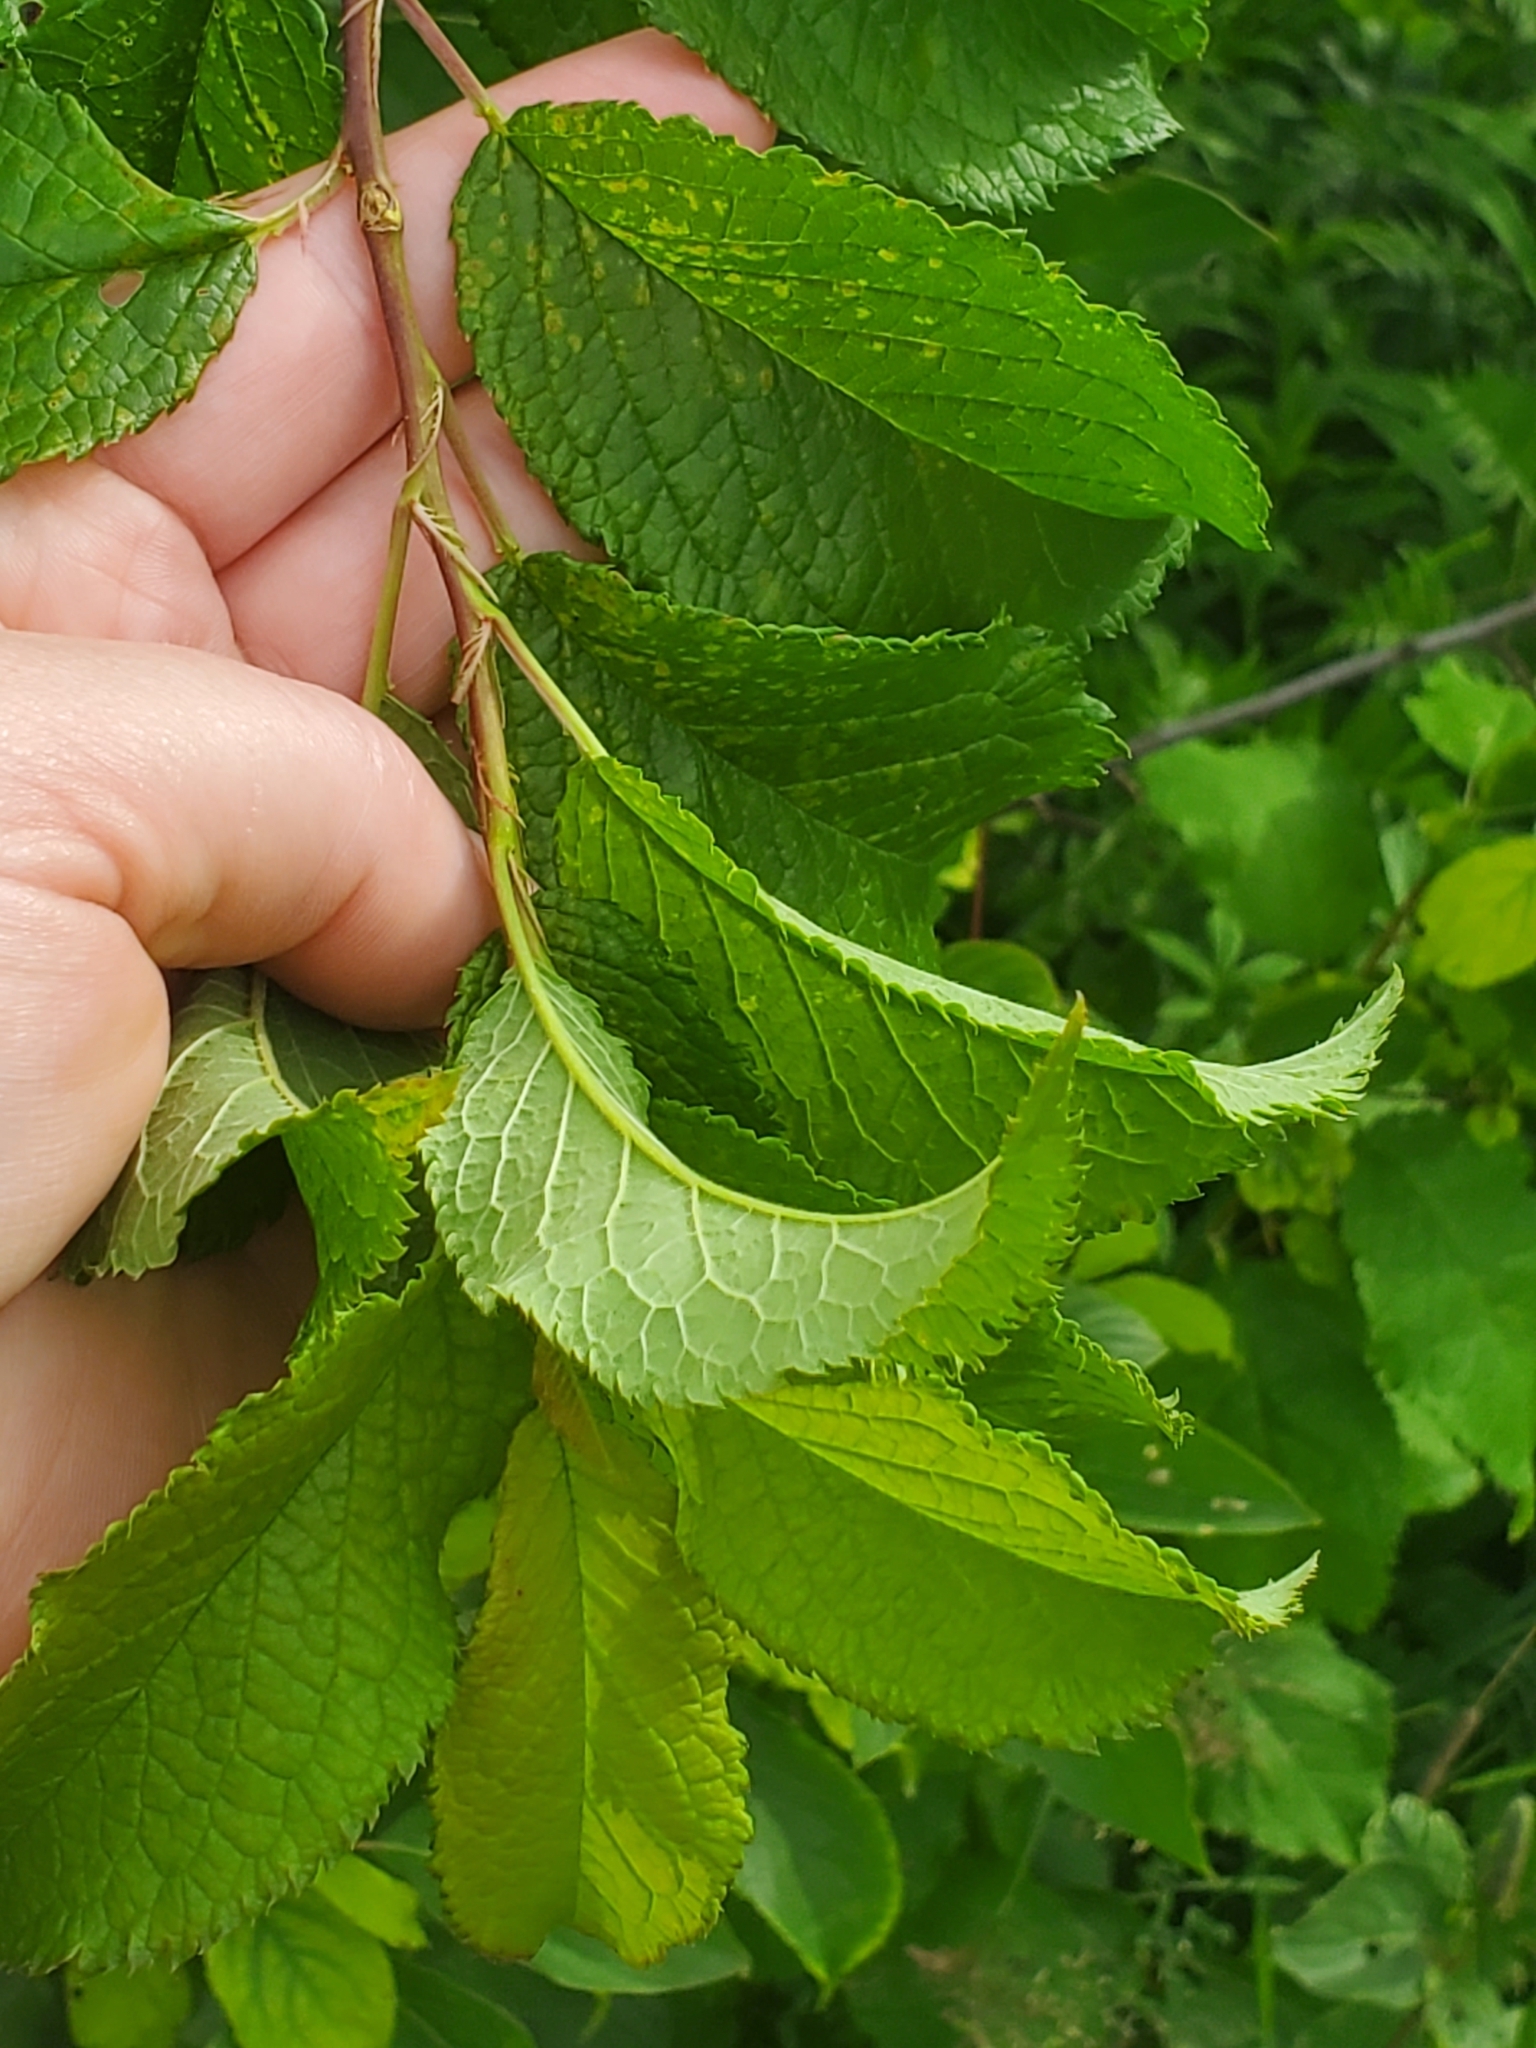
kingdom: Plantae
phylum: Tracheophyta
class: Magnoliopsida
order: Rosales
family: Rosaceae
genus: Prunus
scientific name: Prunus americana
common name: American plum
